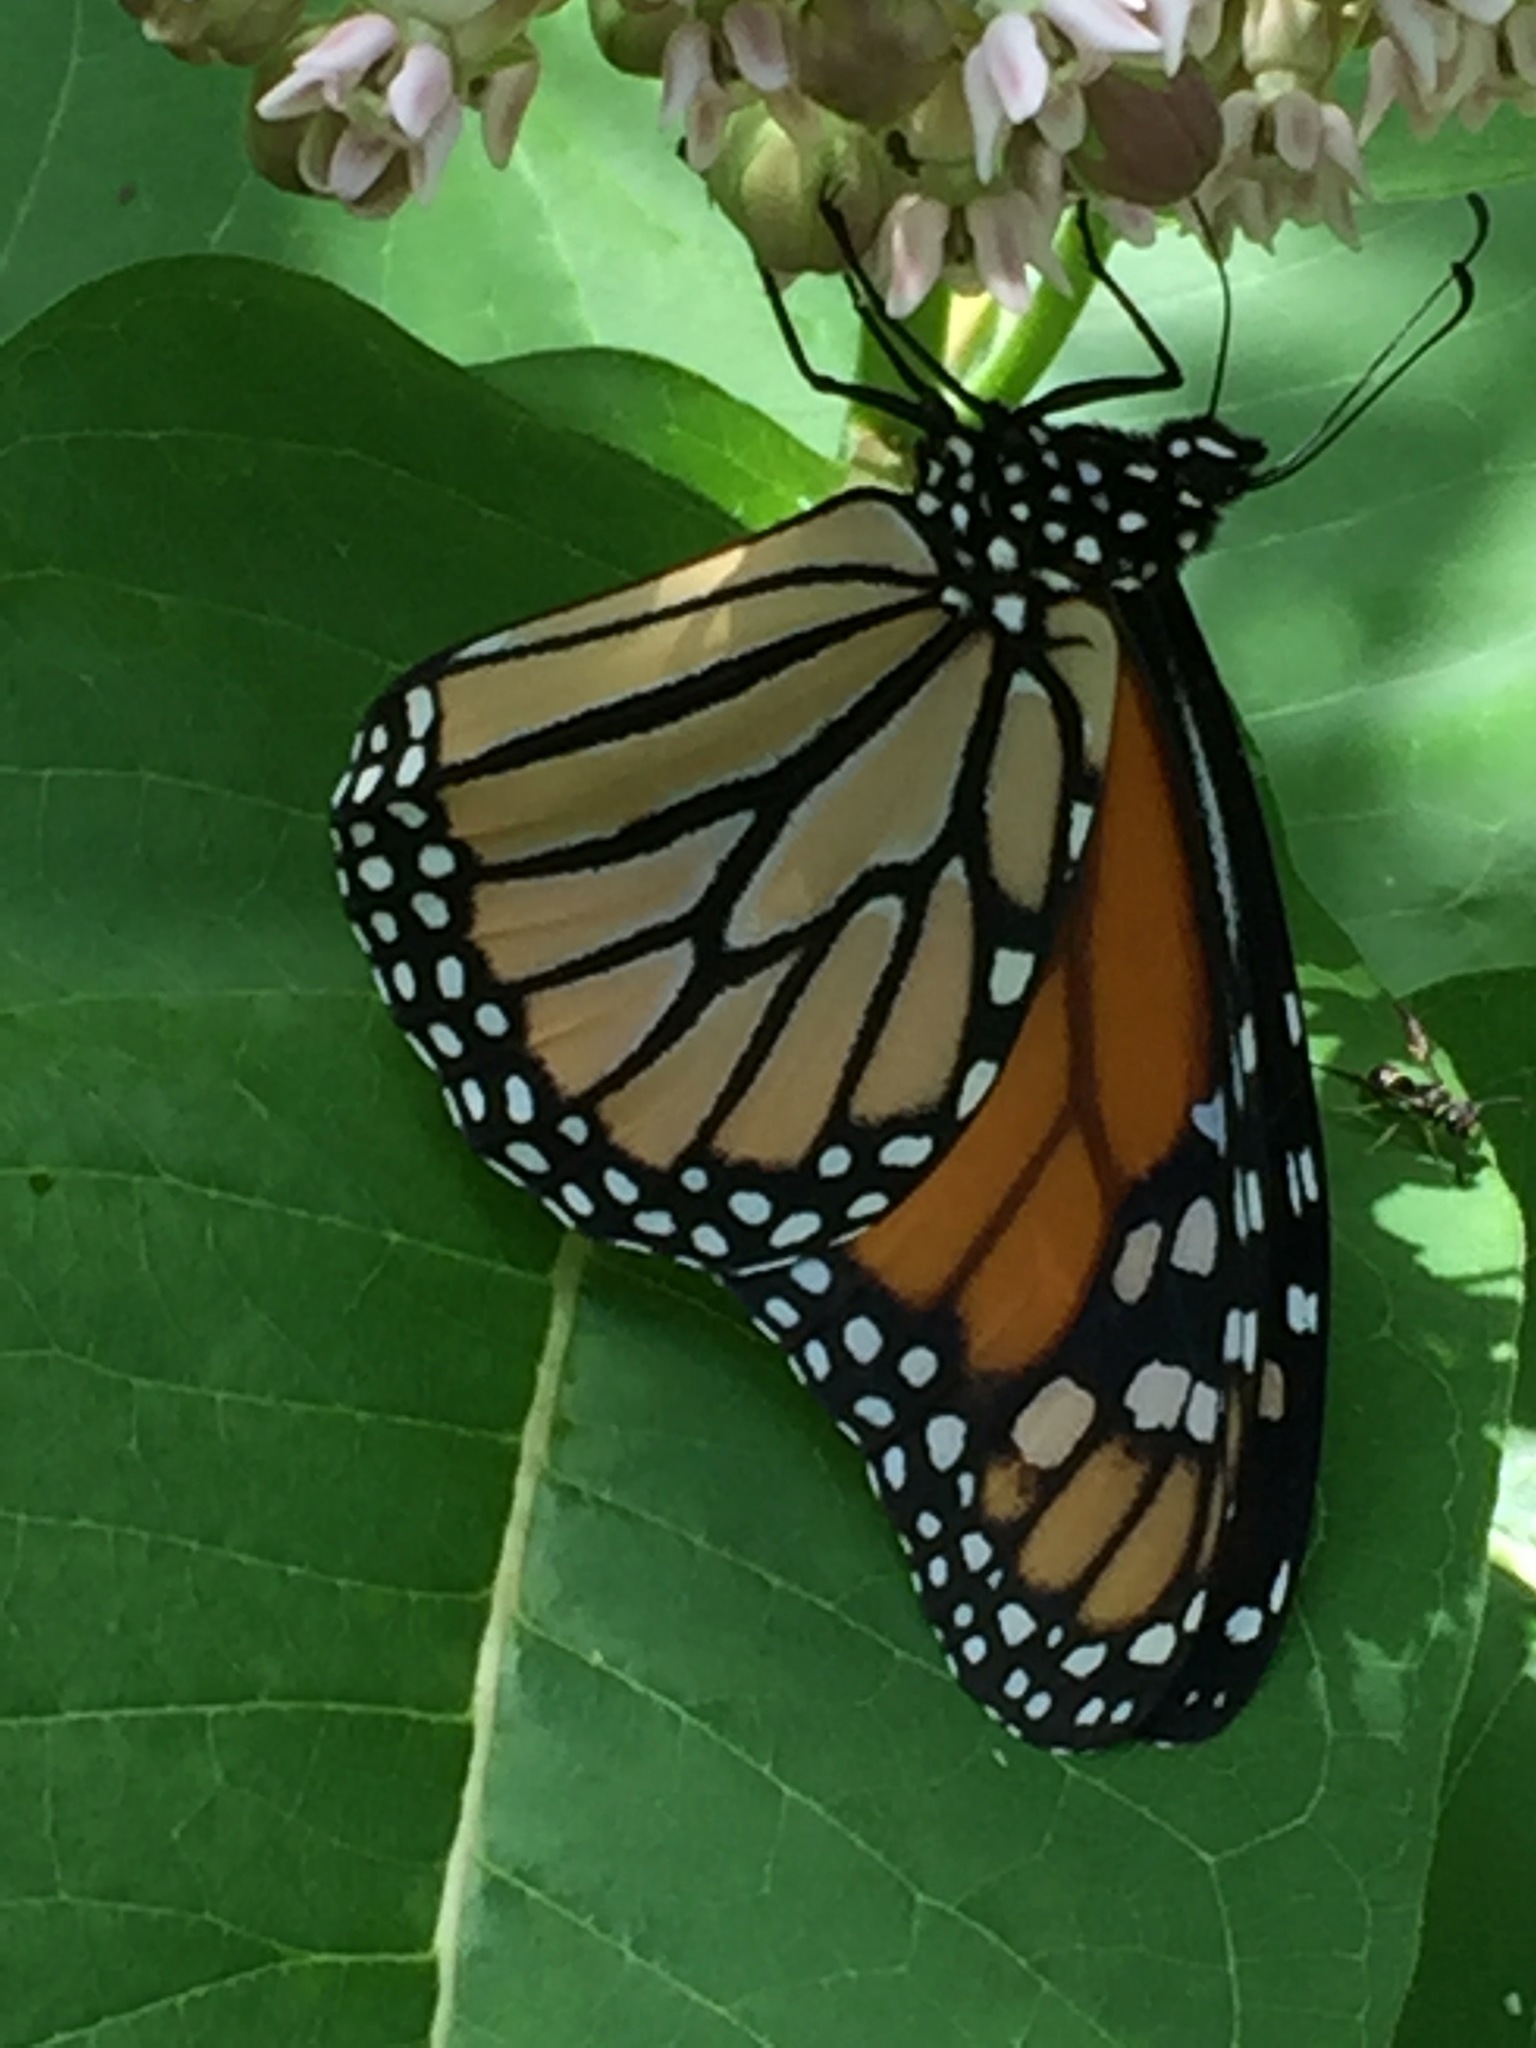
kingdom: Animalia
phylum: Arthropoda
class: Insecta
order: Lepidoptera
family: Nymphalidae
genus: Danaus
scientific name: Danaus plexippus
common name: Monarch
